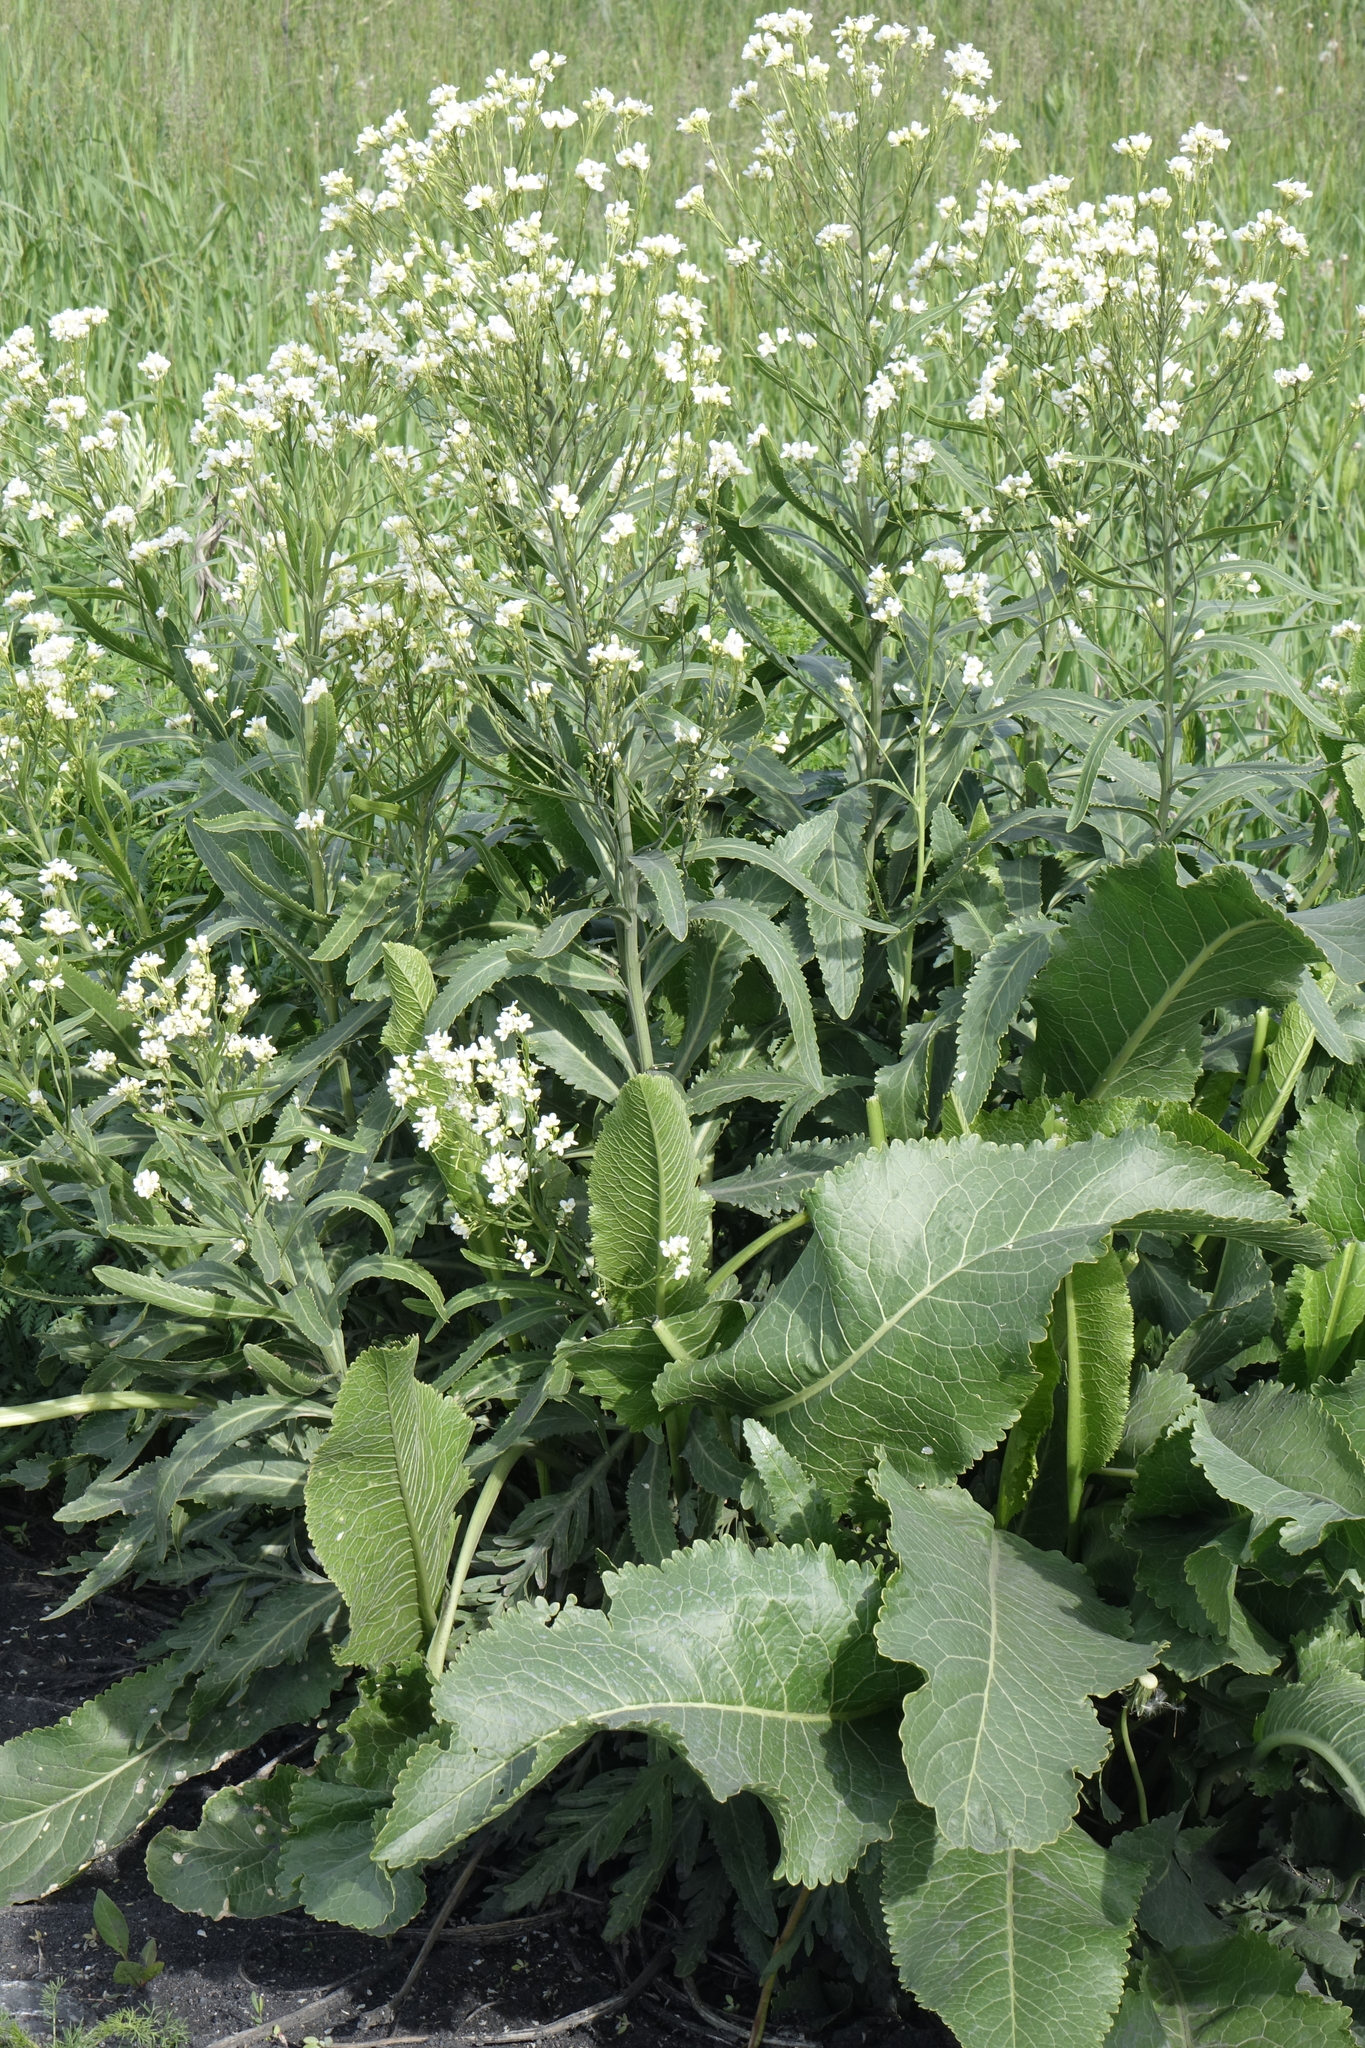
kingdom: Plantae
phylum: Tracheophyta
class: Magnoliopsida
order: Brassicales
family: Brassicaceae
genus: Armoracia
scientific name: Armoracia rusticana
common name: Horseradish
